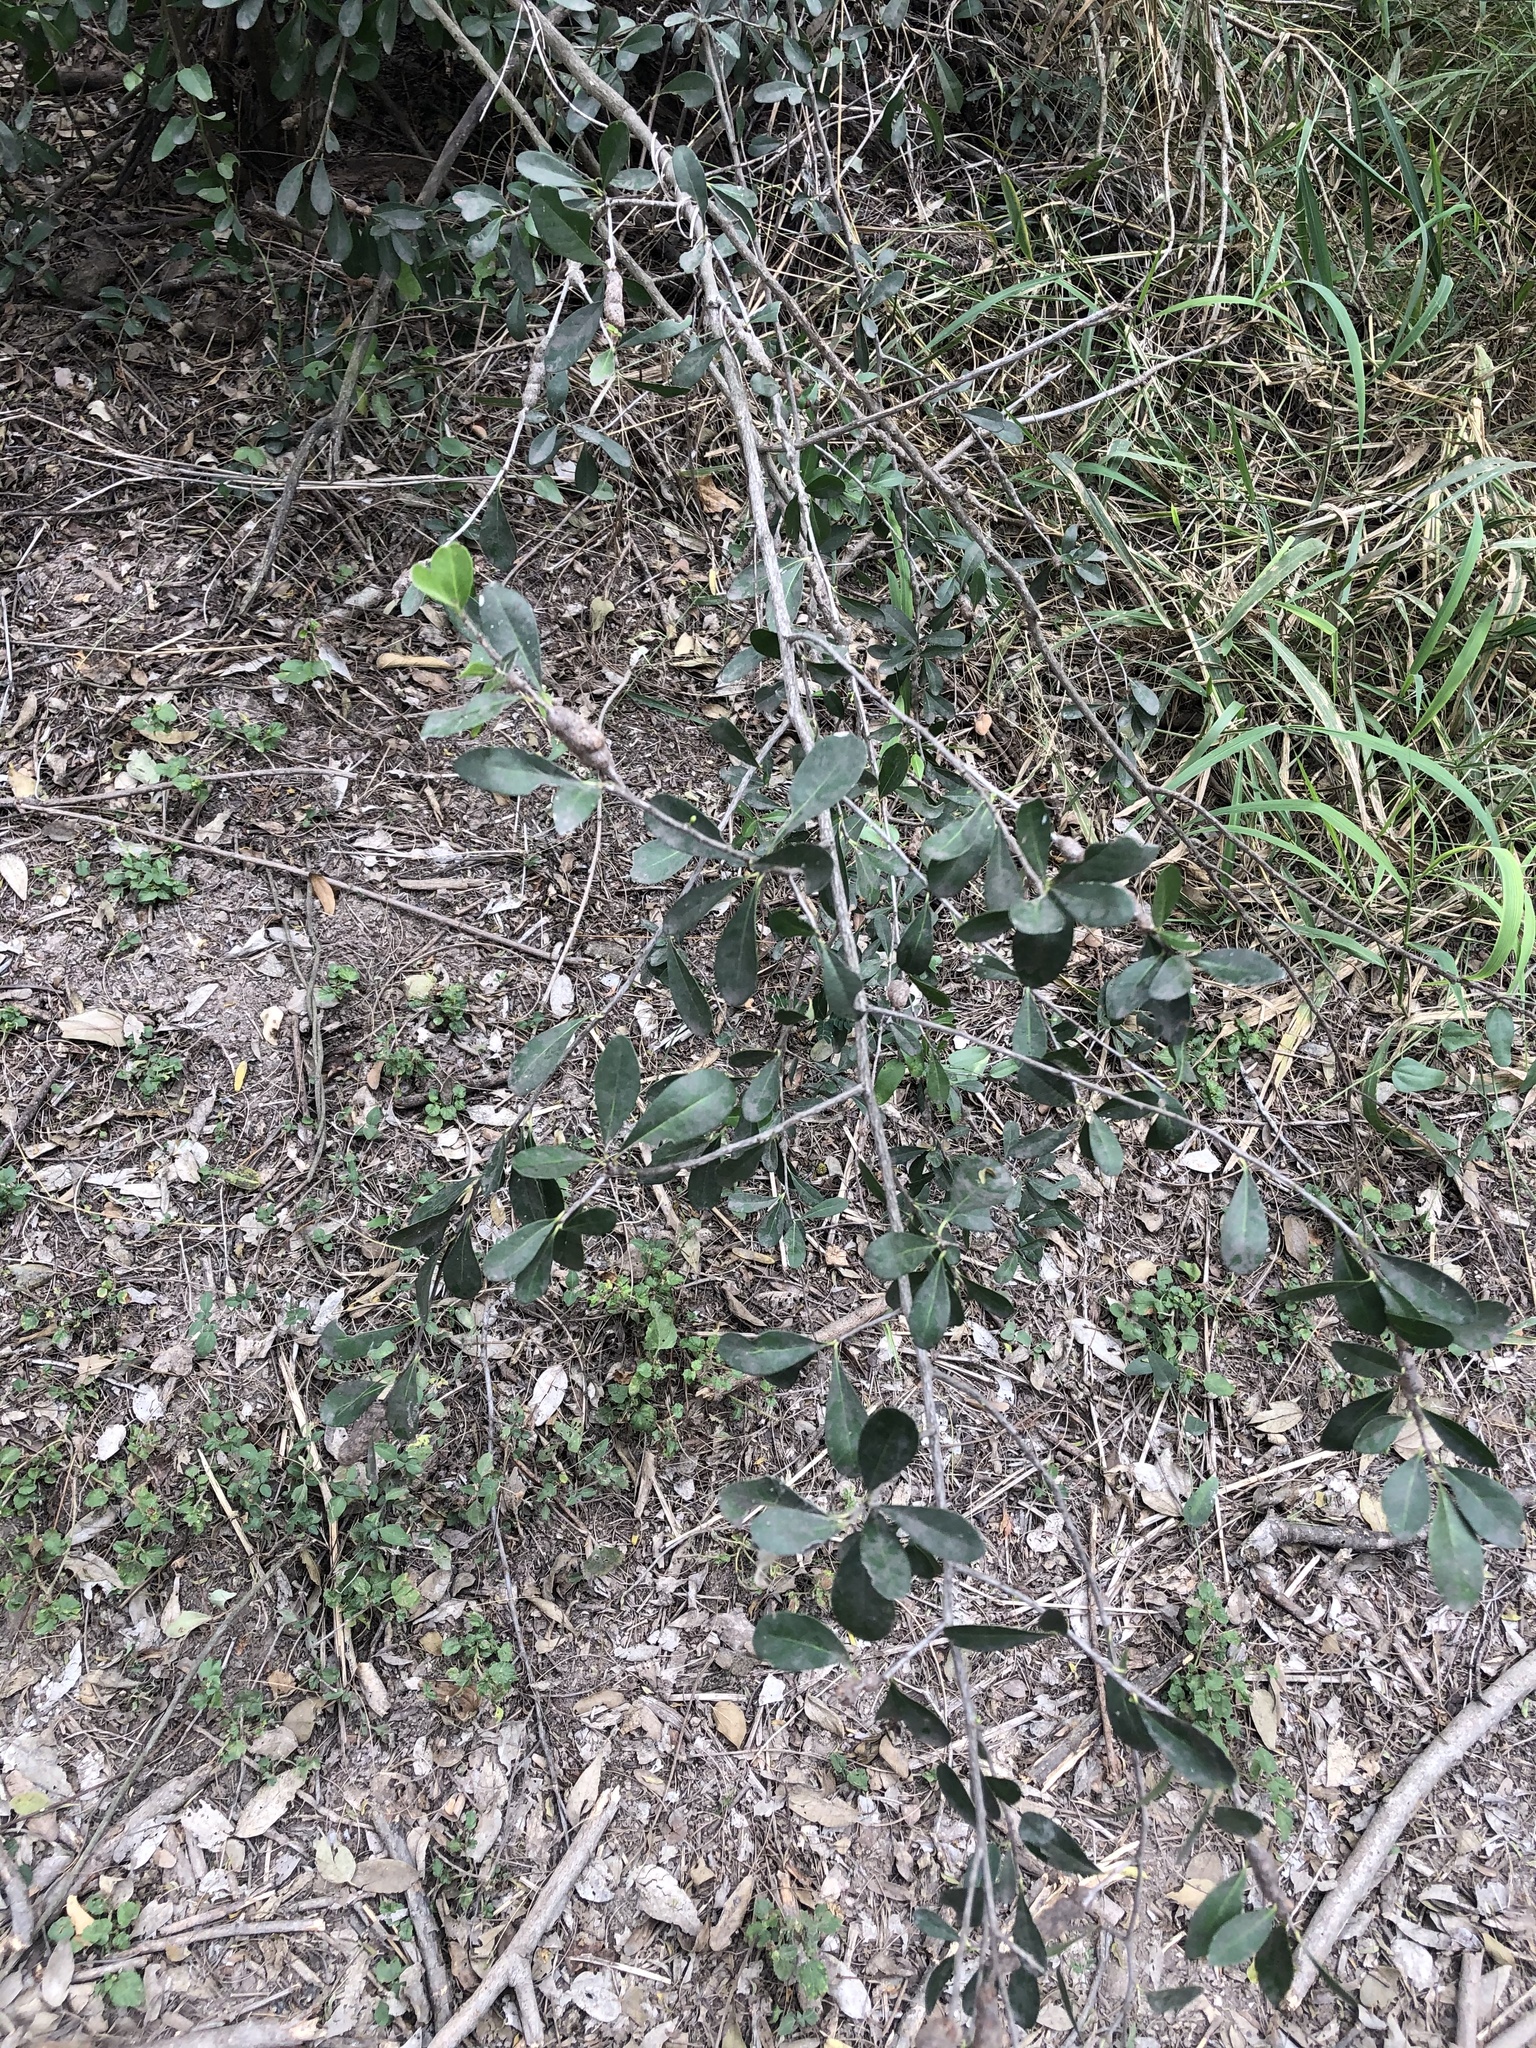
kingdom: Plantae
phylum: Tracheophyta
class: Magnoliopsida
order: Ericales
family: Sapotaceae
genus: Sideroxylon
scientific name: Sideroxylon celastrinum
